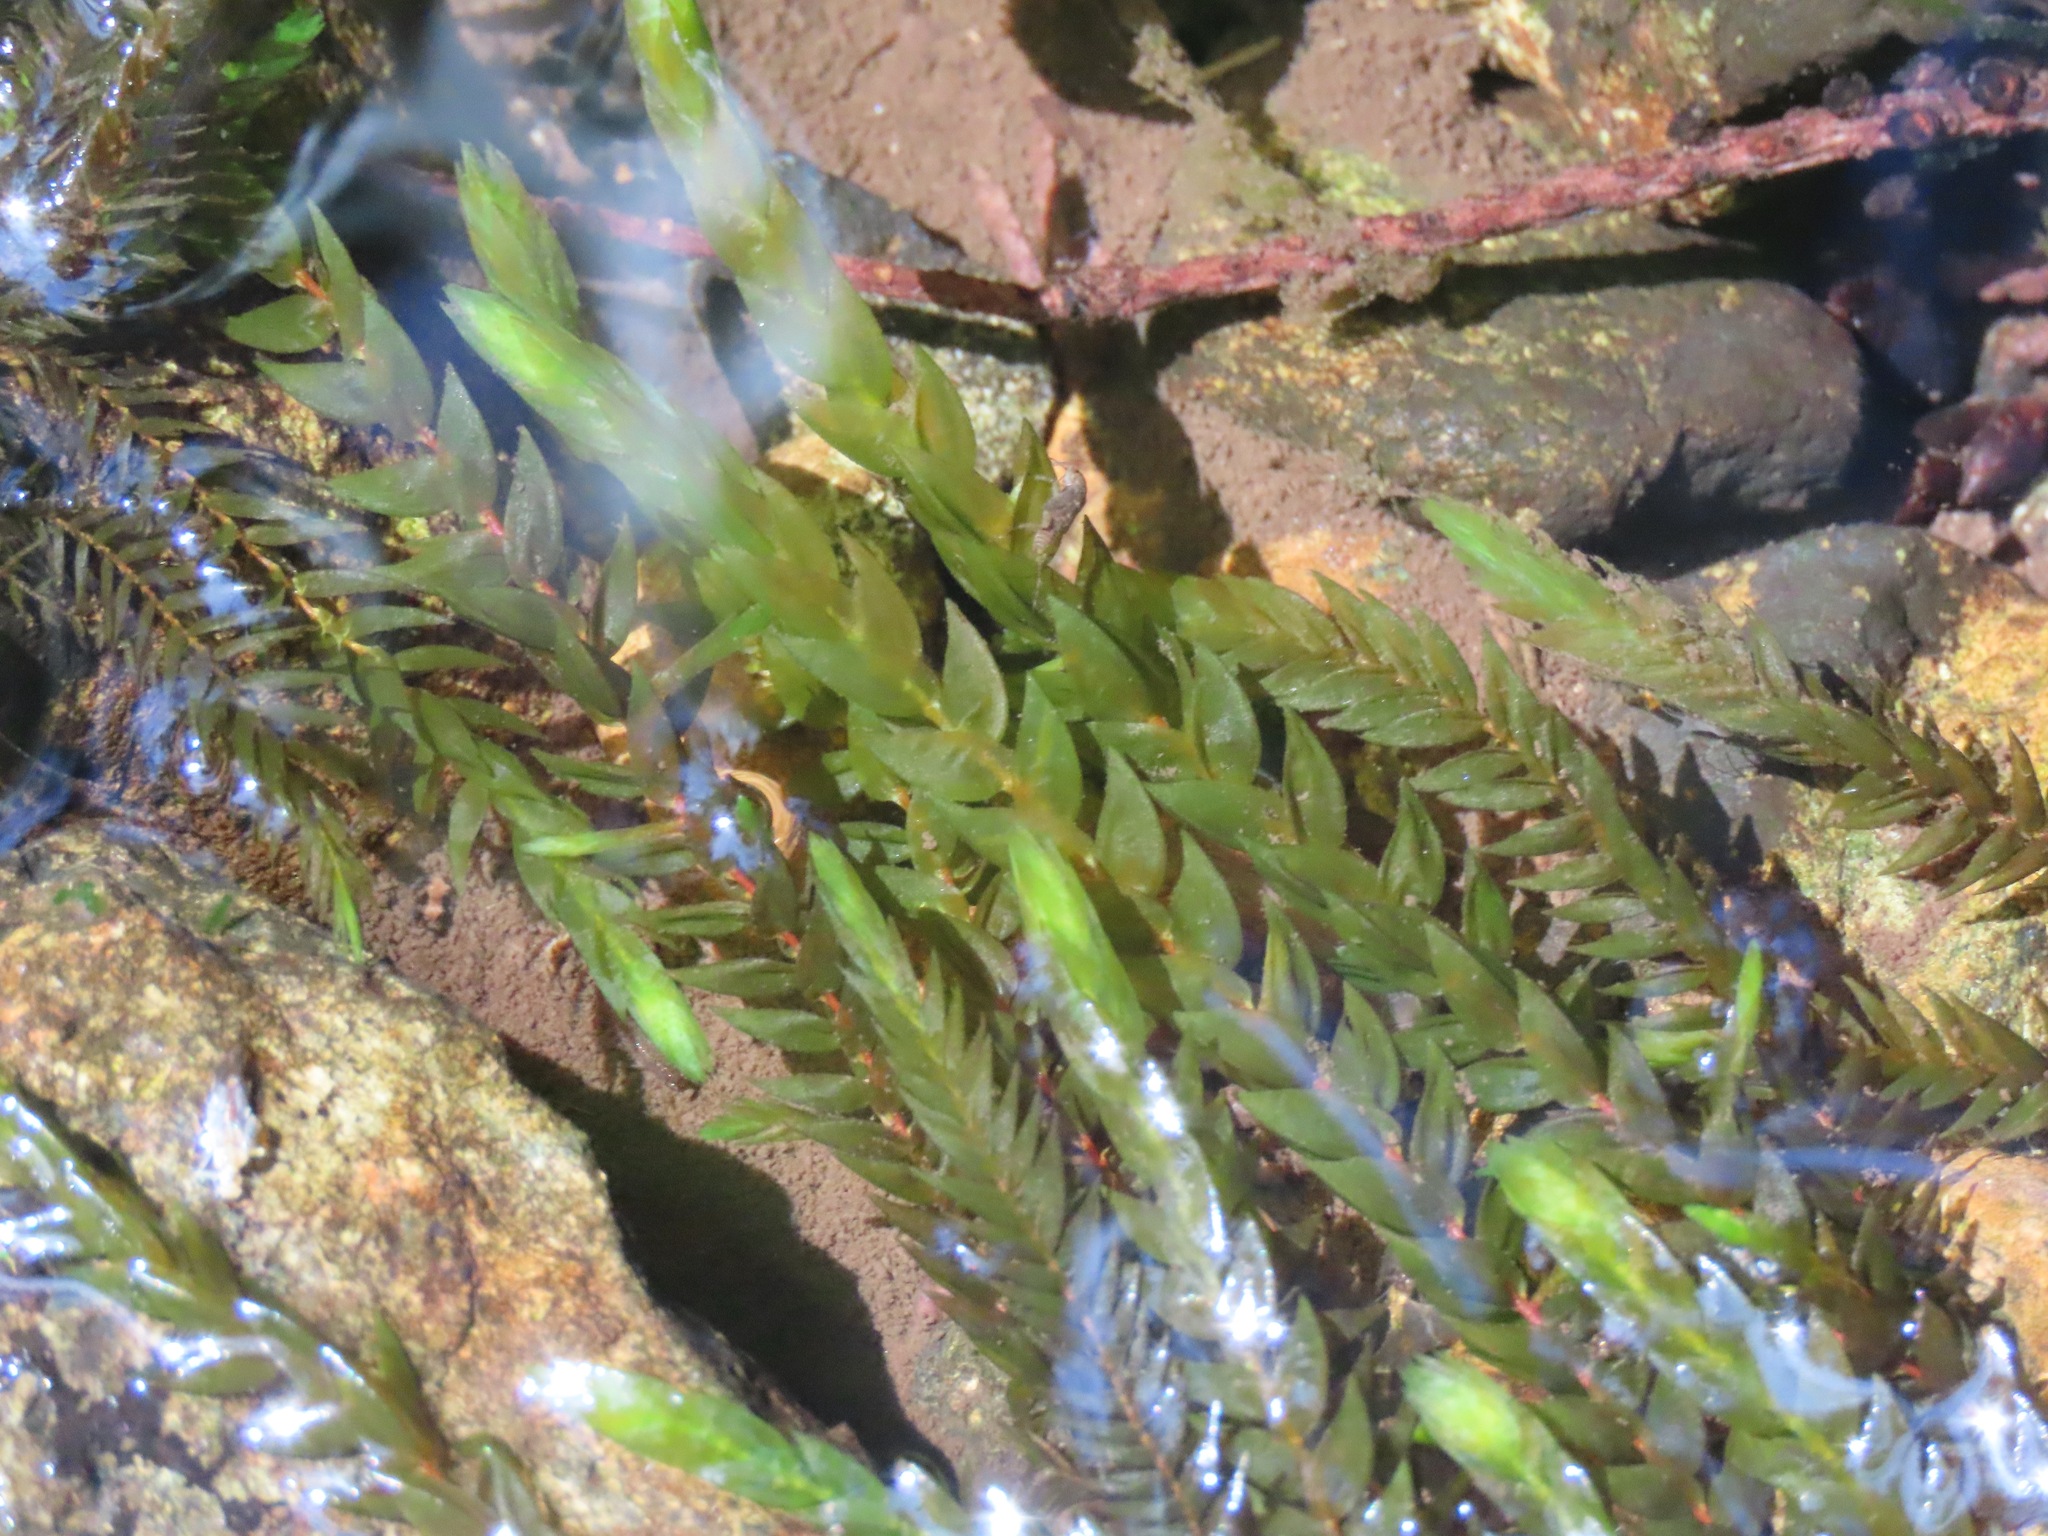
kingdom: Plantae
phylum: Bryophyta
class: Bryopsida
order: Hypnales
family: Fontinalaceae
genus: Fontinalis
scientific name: Fontinalis antipyretica
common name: Greater water-moss
